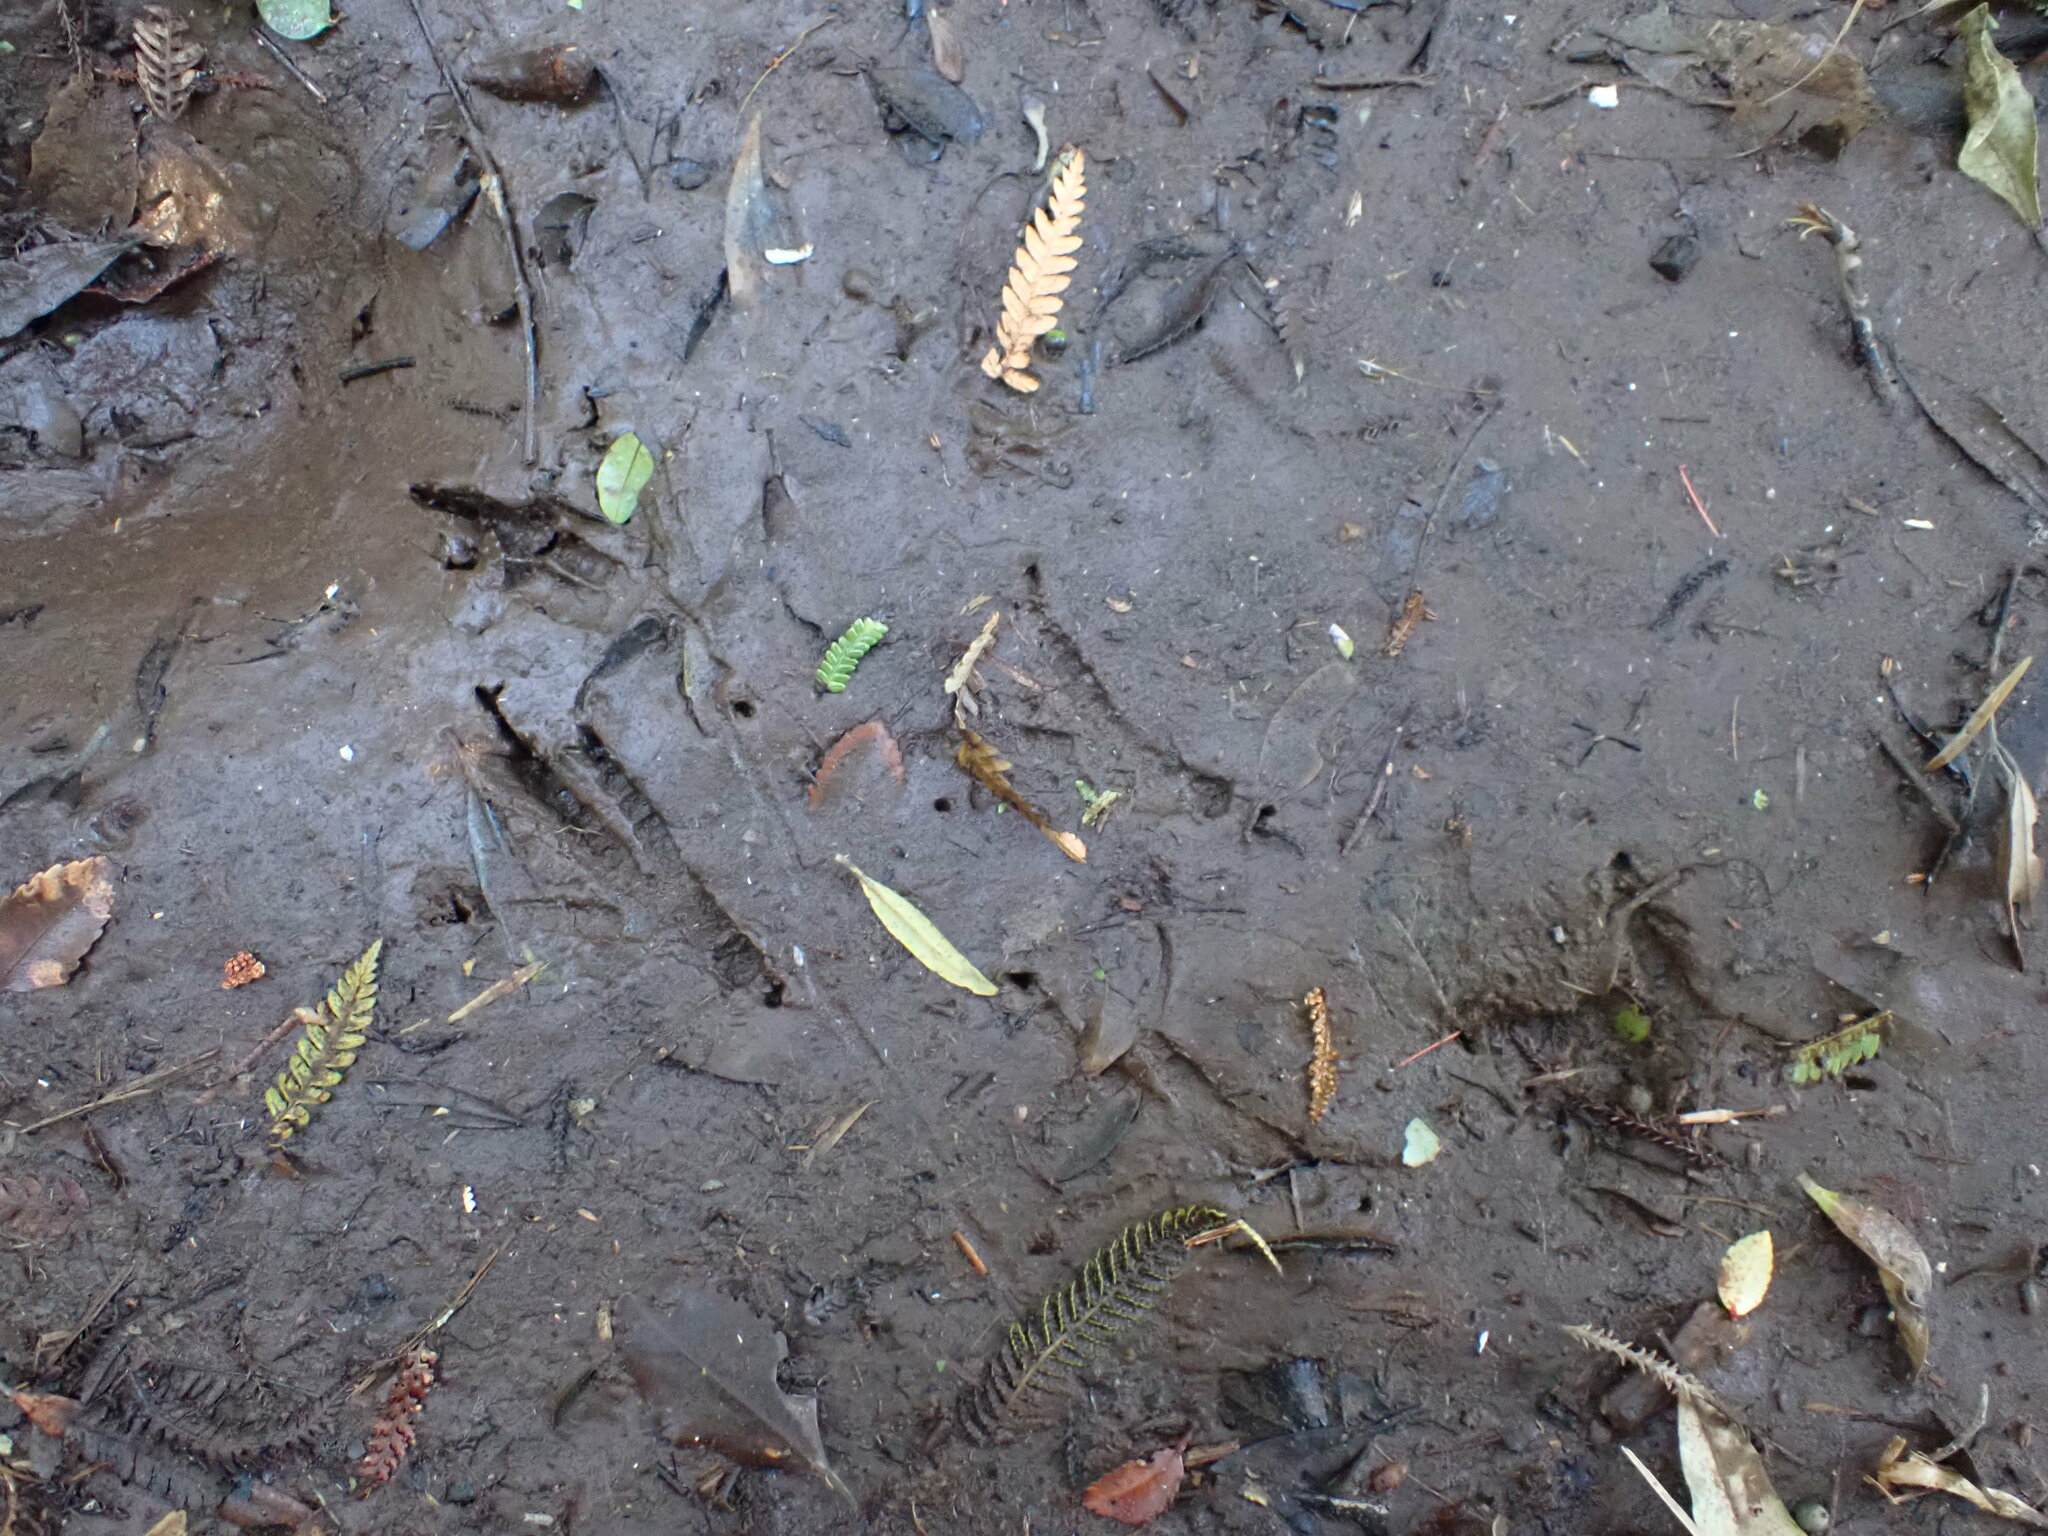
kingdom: Animalia
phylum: Chordata
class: Aves
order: Apterygiformes
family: Apterygidae
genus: Apteryx
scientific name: Apteryx mantelli
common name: North island brown kiwi
